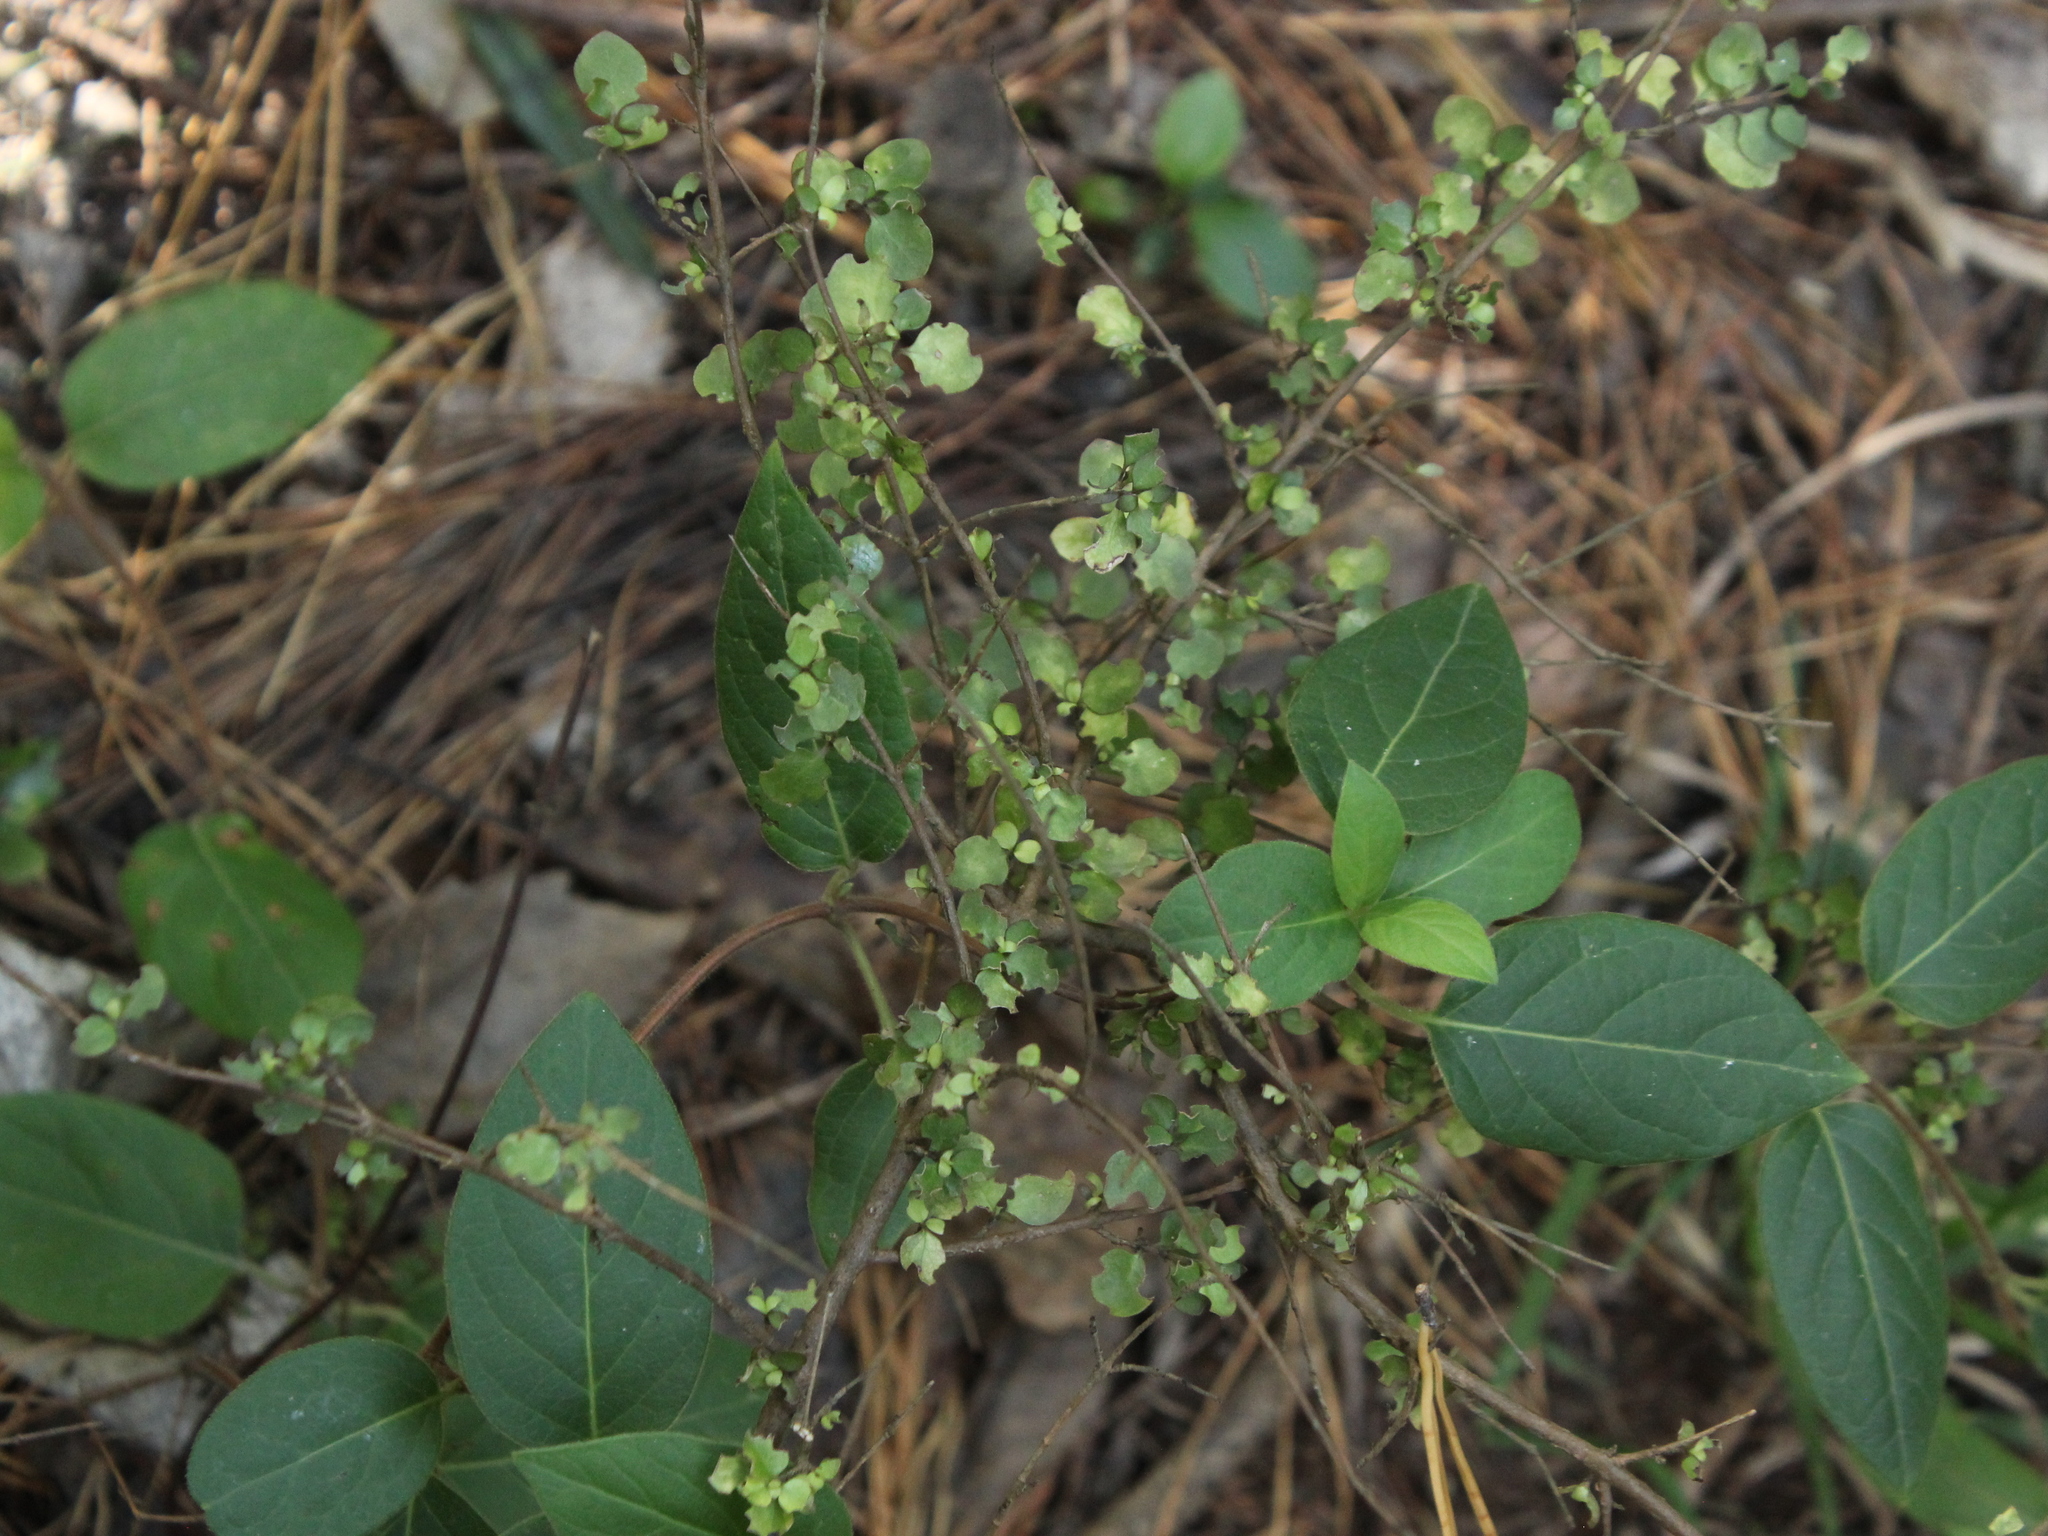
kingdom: Plantae
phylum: Tracheophyta
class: Magnoliopsida
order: Gentianales
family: Rubiaceae
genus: Coprosma
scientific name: Coprosma rhamnoides
